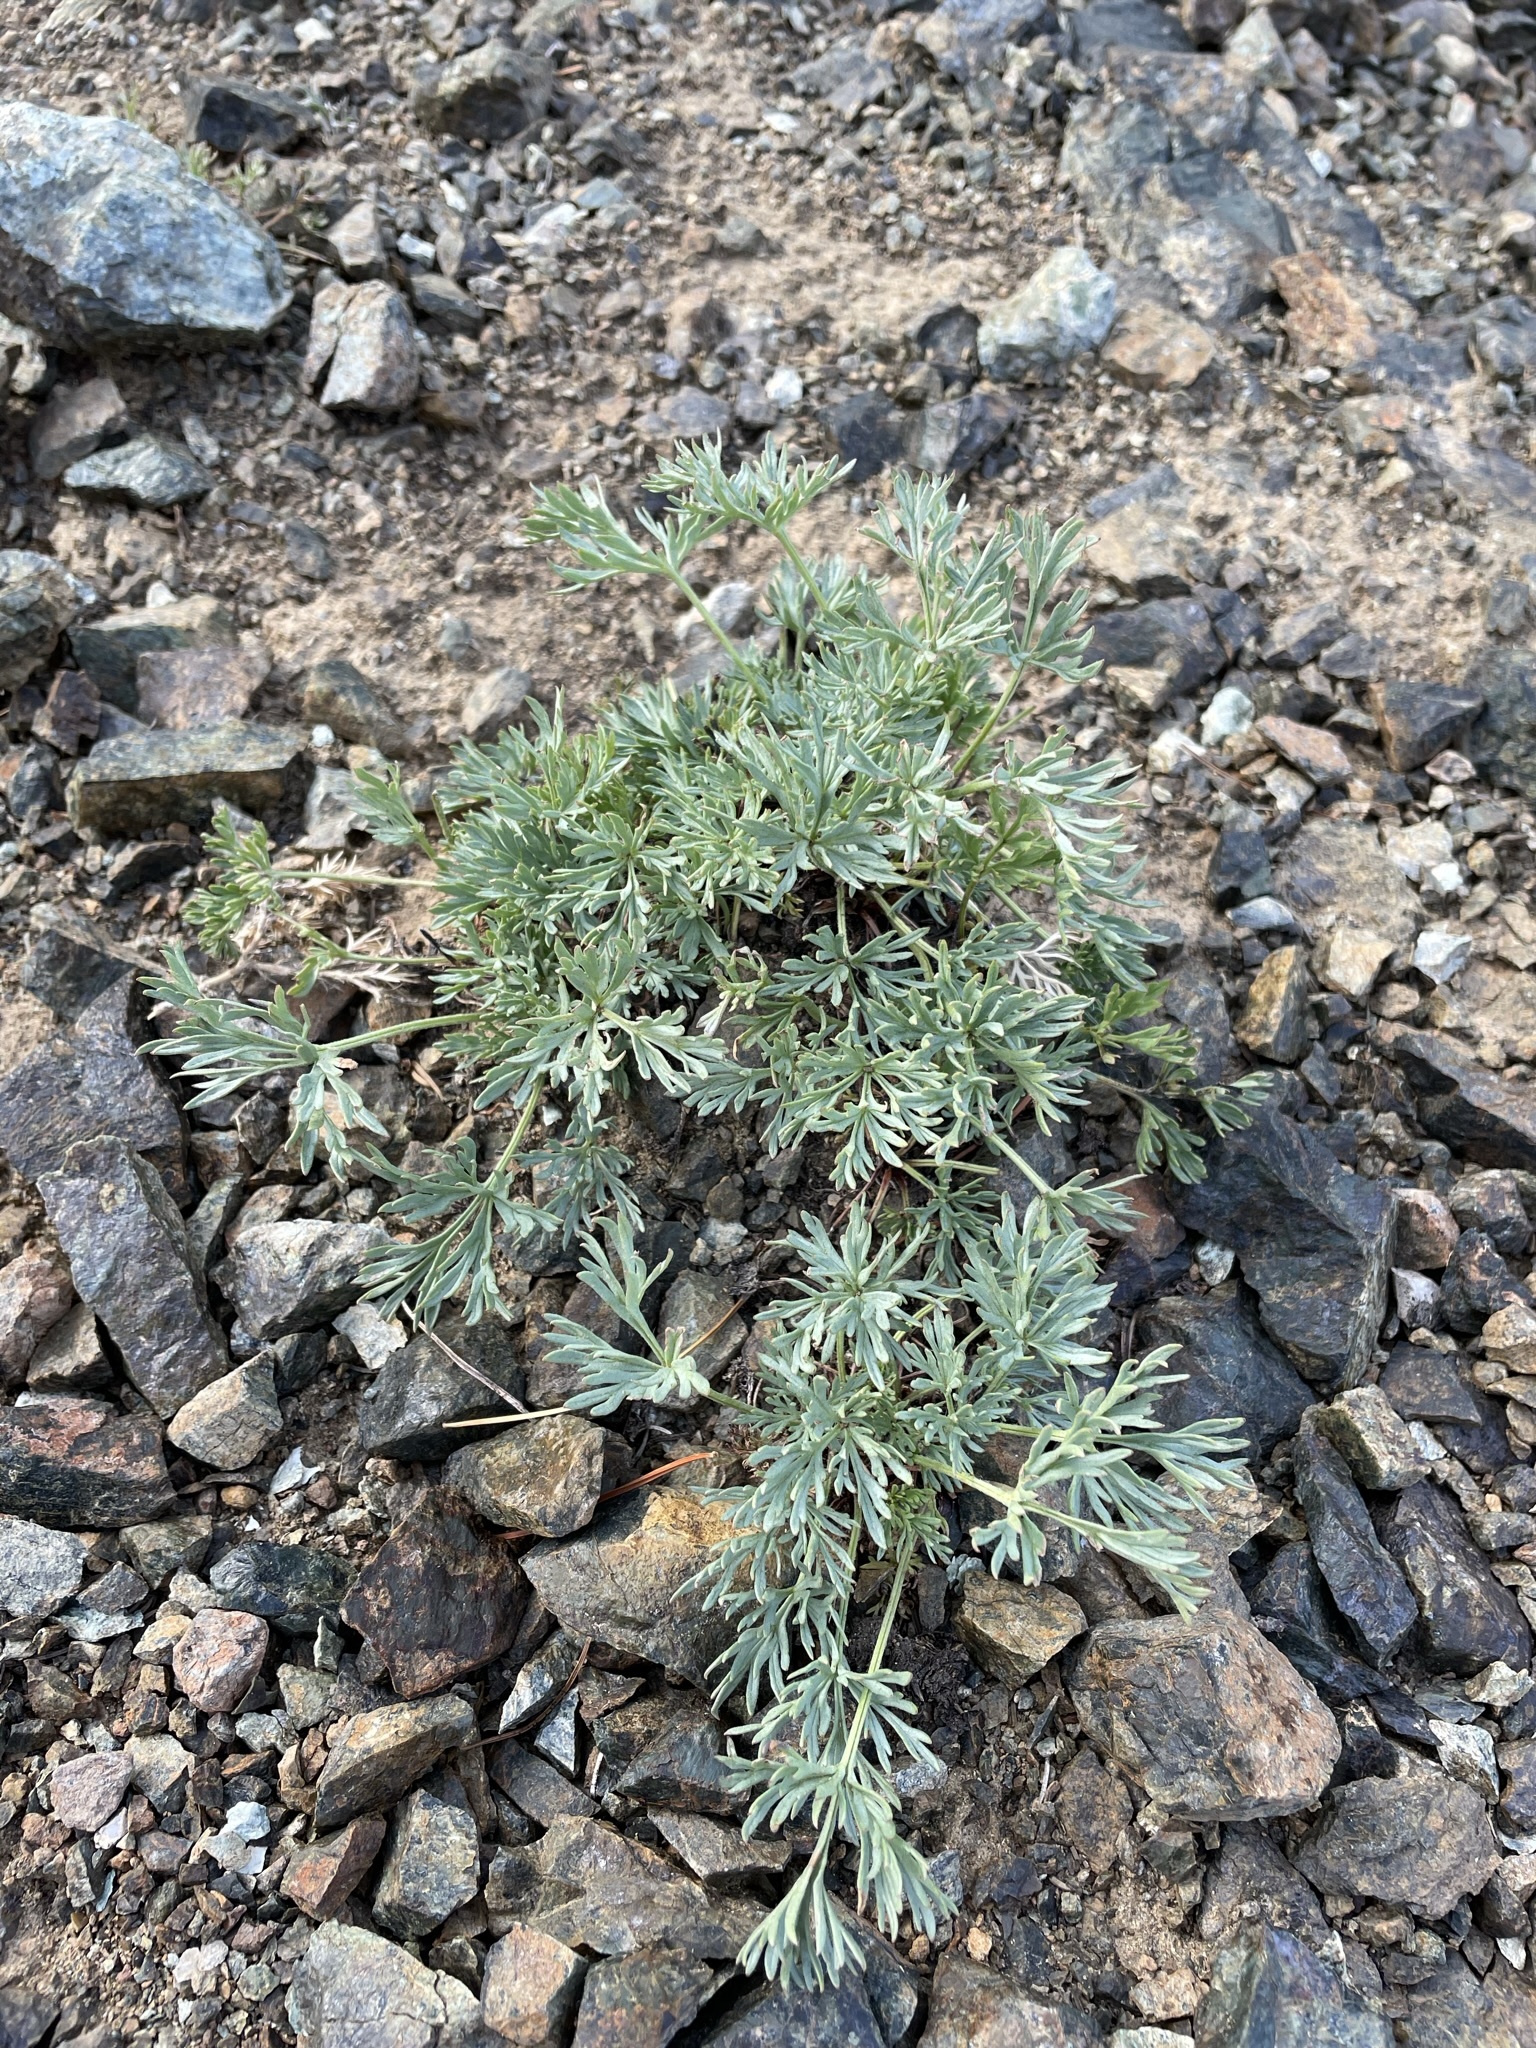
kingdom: Plantae
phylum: Tracheophyta
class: Magnoliopsida
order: Ranunculales
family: Ranunculaceae
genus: Anemone
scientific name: Anemone drummondii
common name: Drummond's anemone
